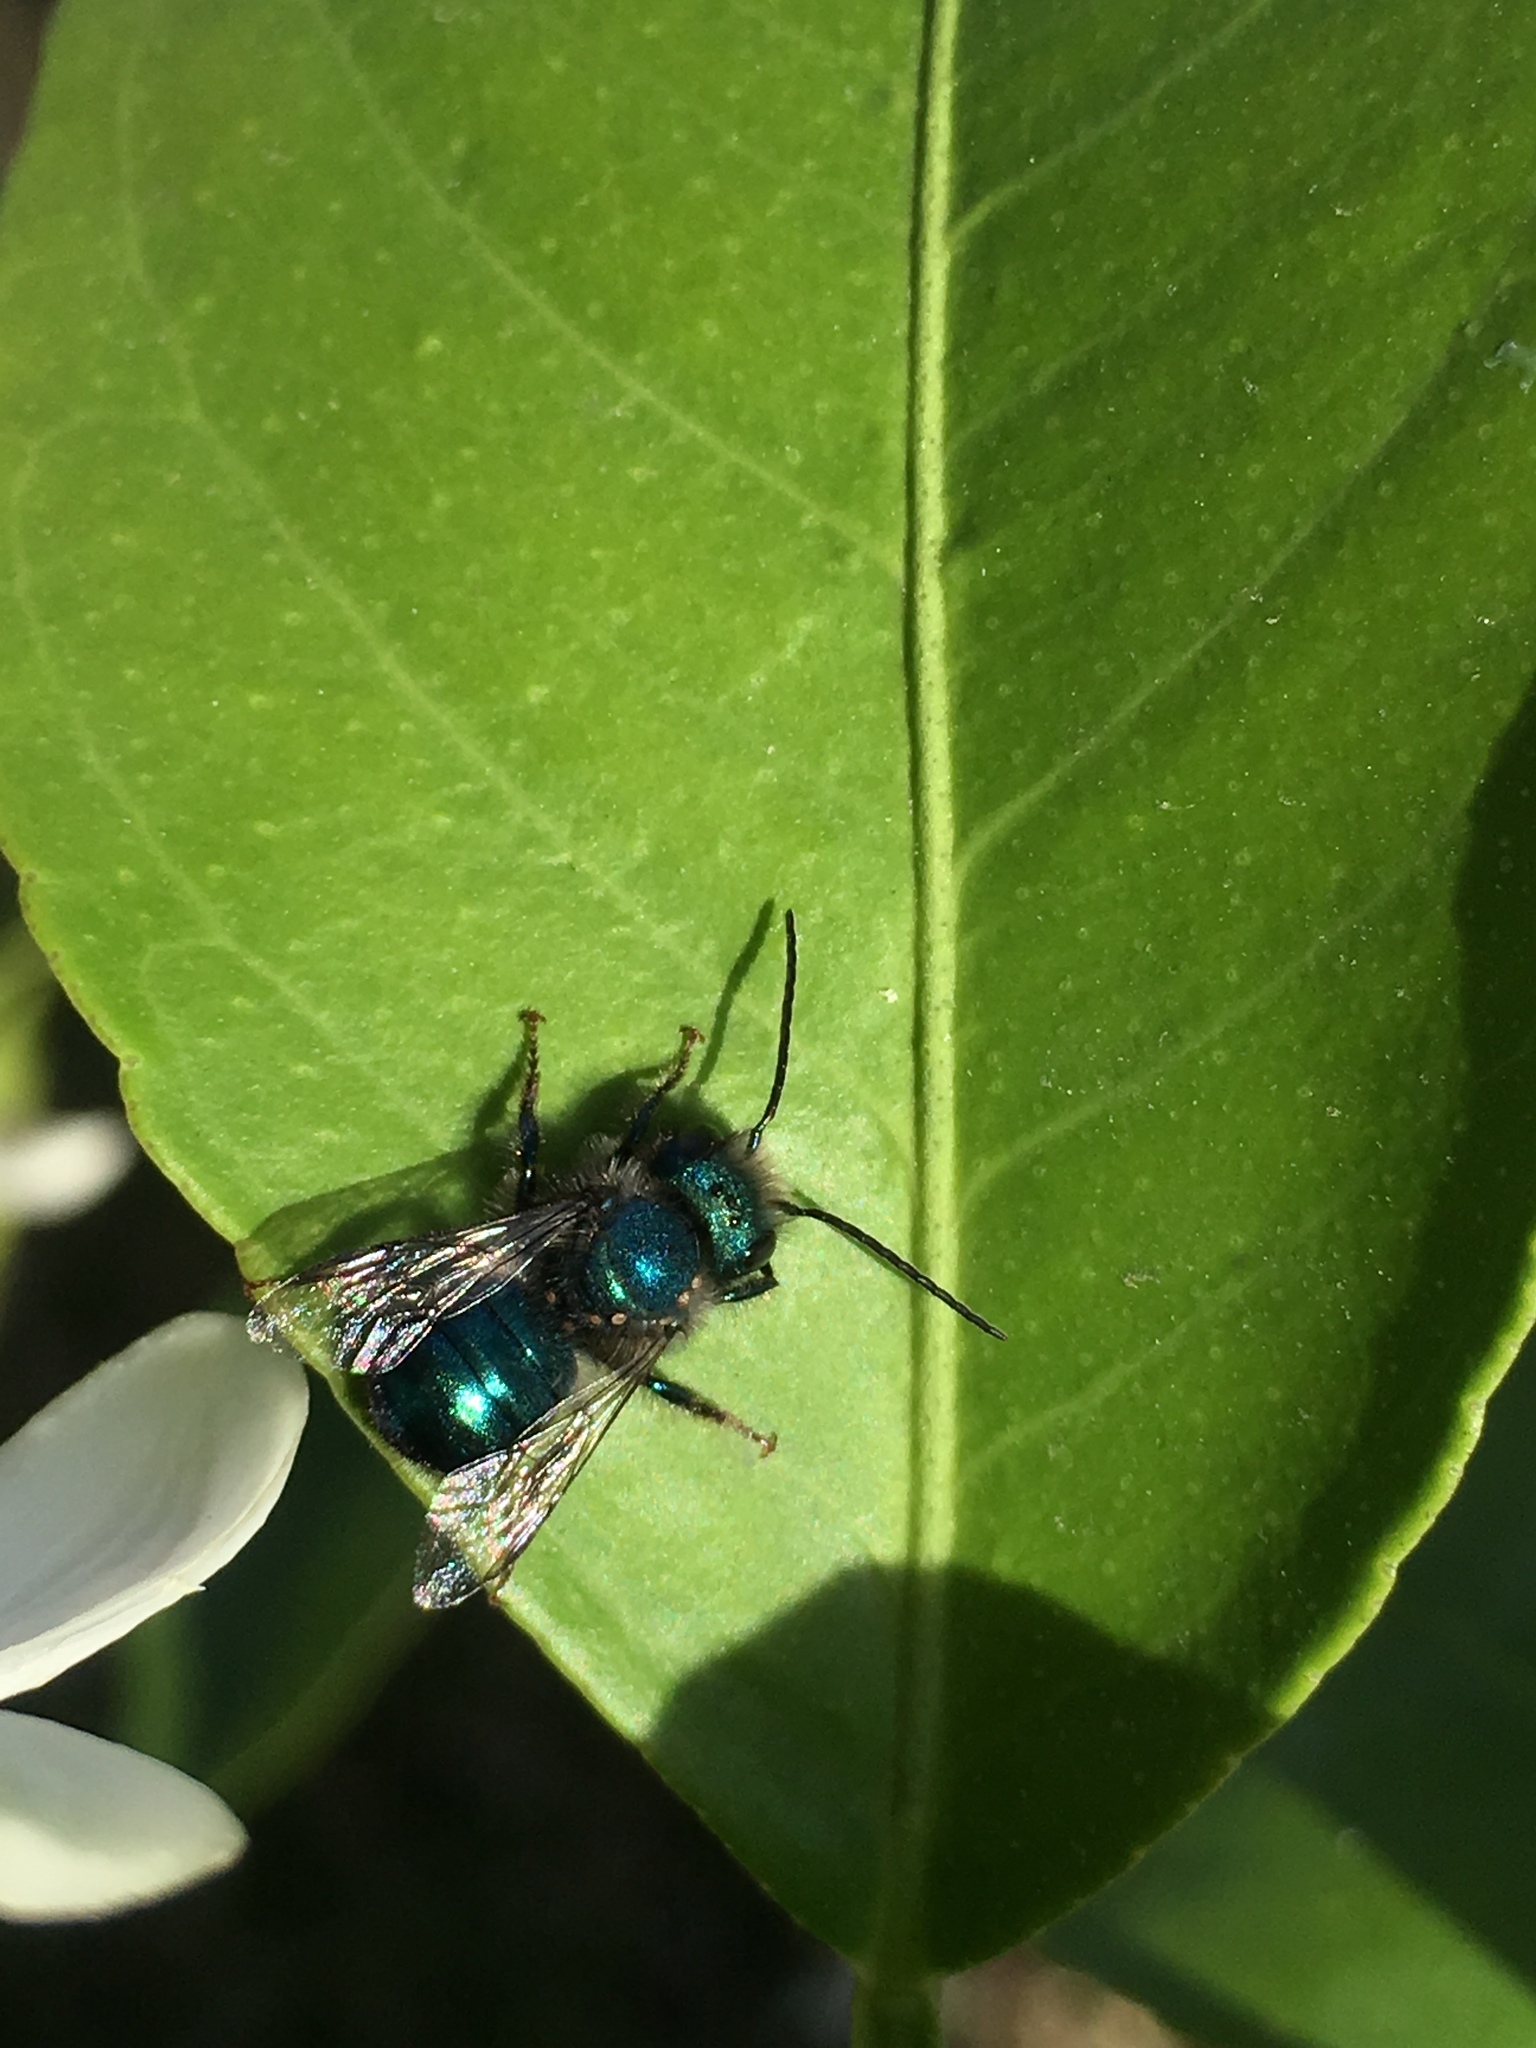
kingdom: Animalia
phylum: Arthropoda
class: Insecta
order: Hymenoptera
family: Megachilidae
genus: Osmia
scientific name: Osmia ribifloris
